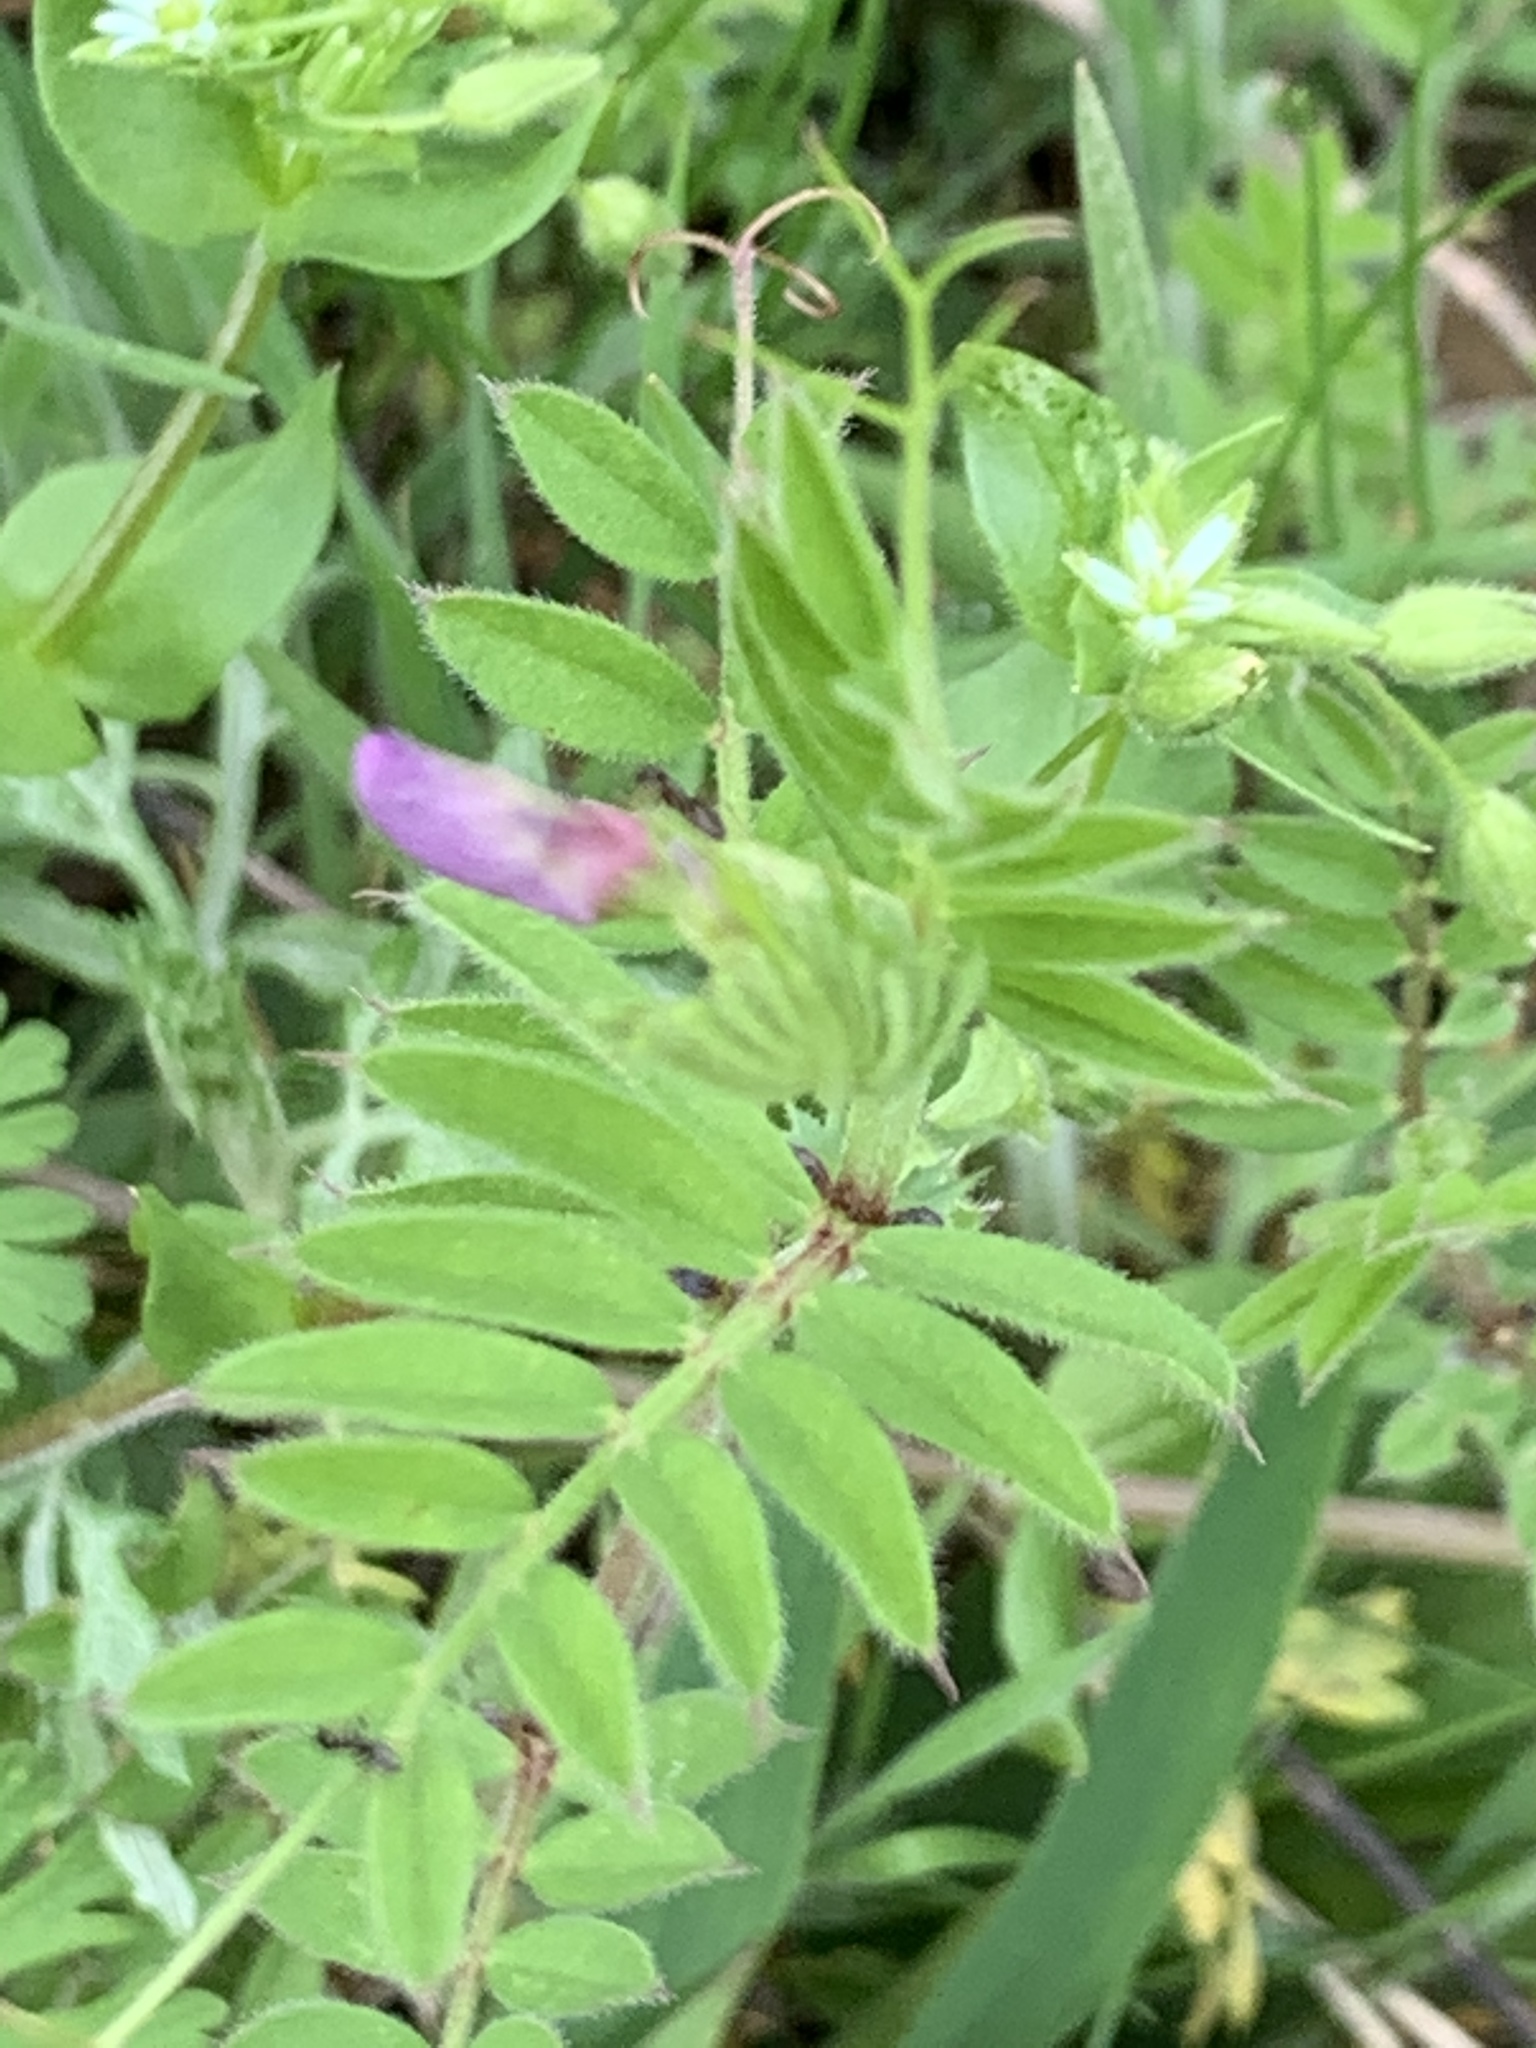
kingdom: Plantae
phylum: Tracheophyta
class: Magnoliopsida
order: Fabales
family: Fabaceae
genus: Vicia
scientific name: Vicia sativa
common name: Garden vetch
